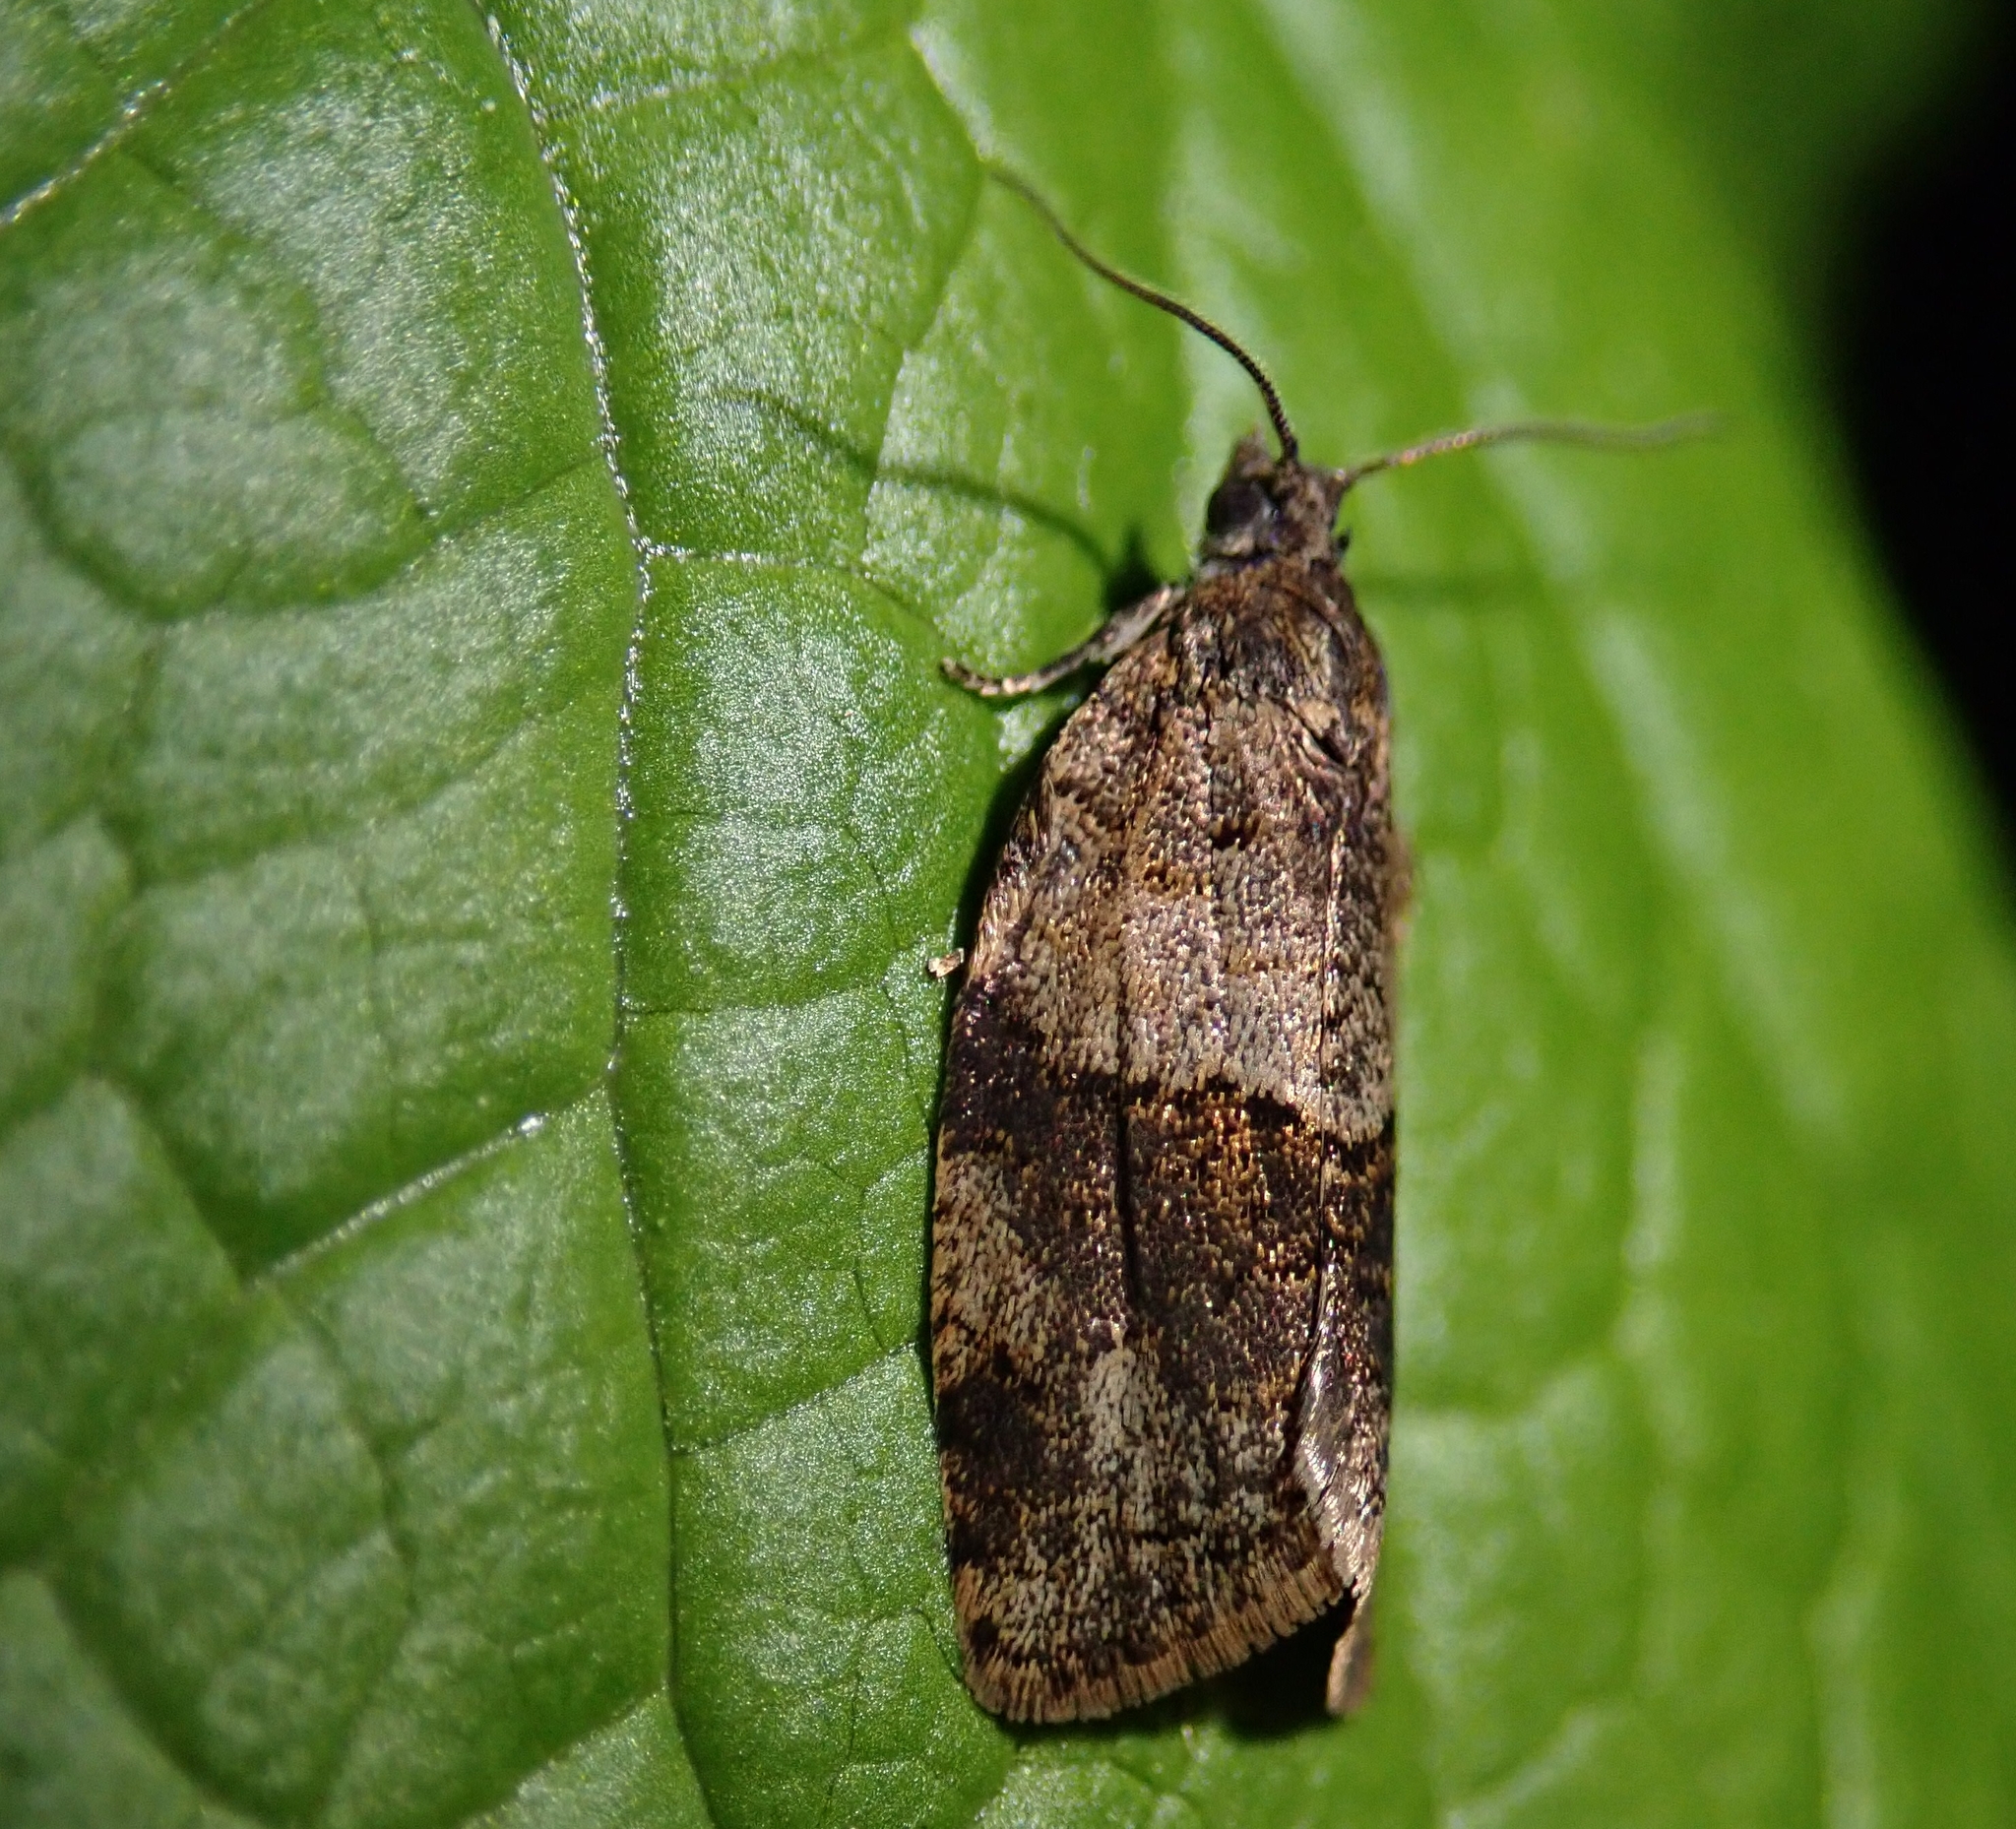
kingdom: Animalia
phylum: Arthropoda
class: Insecta
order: Lepidoptera
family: Tortricidae
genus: Syndemis
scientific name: Syndemis musculana
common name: Dark-barred twist
